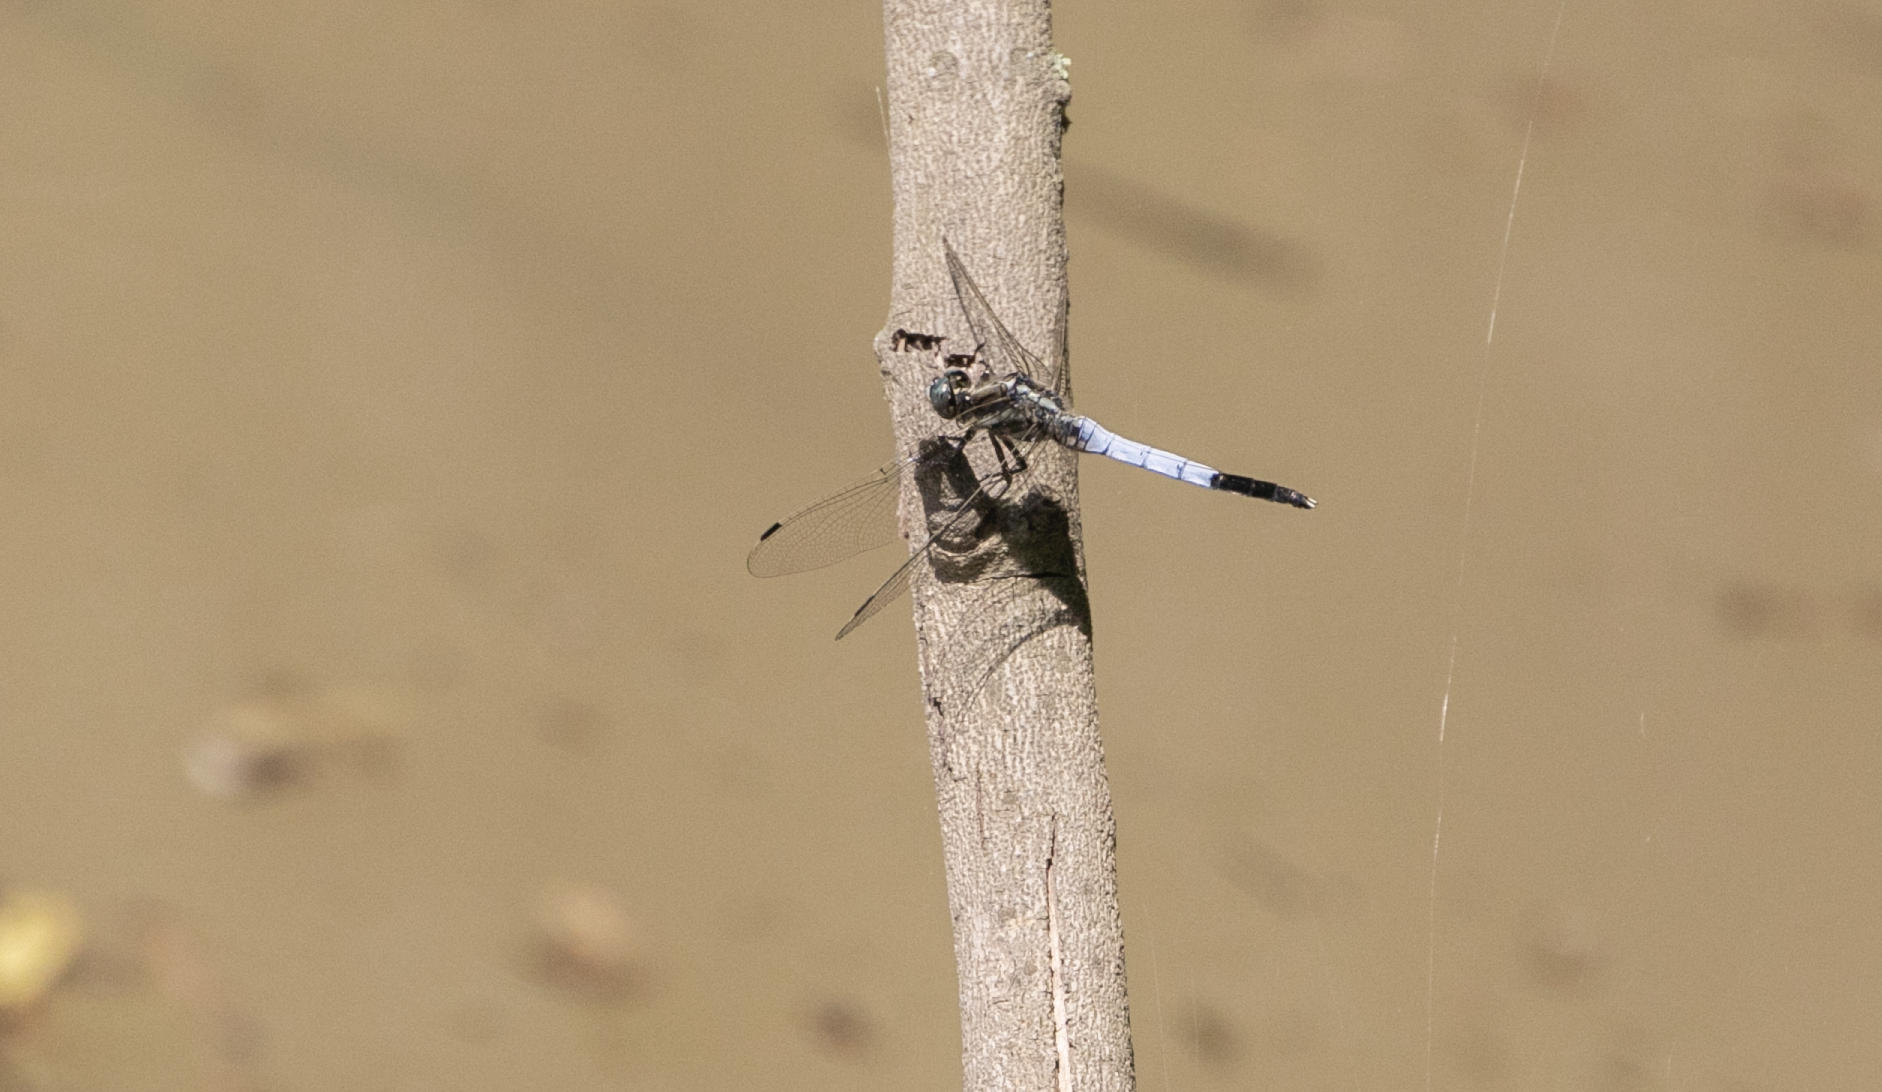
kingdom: Animalia
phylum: Arthropoda
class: Insecta
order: Odonata
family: Libellulidae
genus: Orthetrum
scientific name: Orthetrum albistylum
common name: White-tailed skimmer
